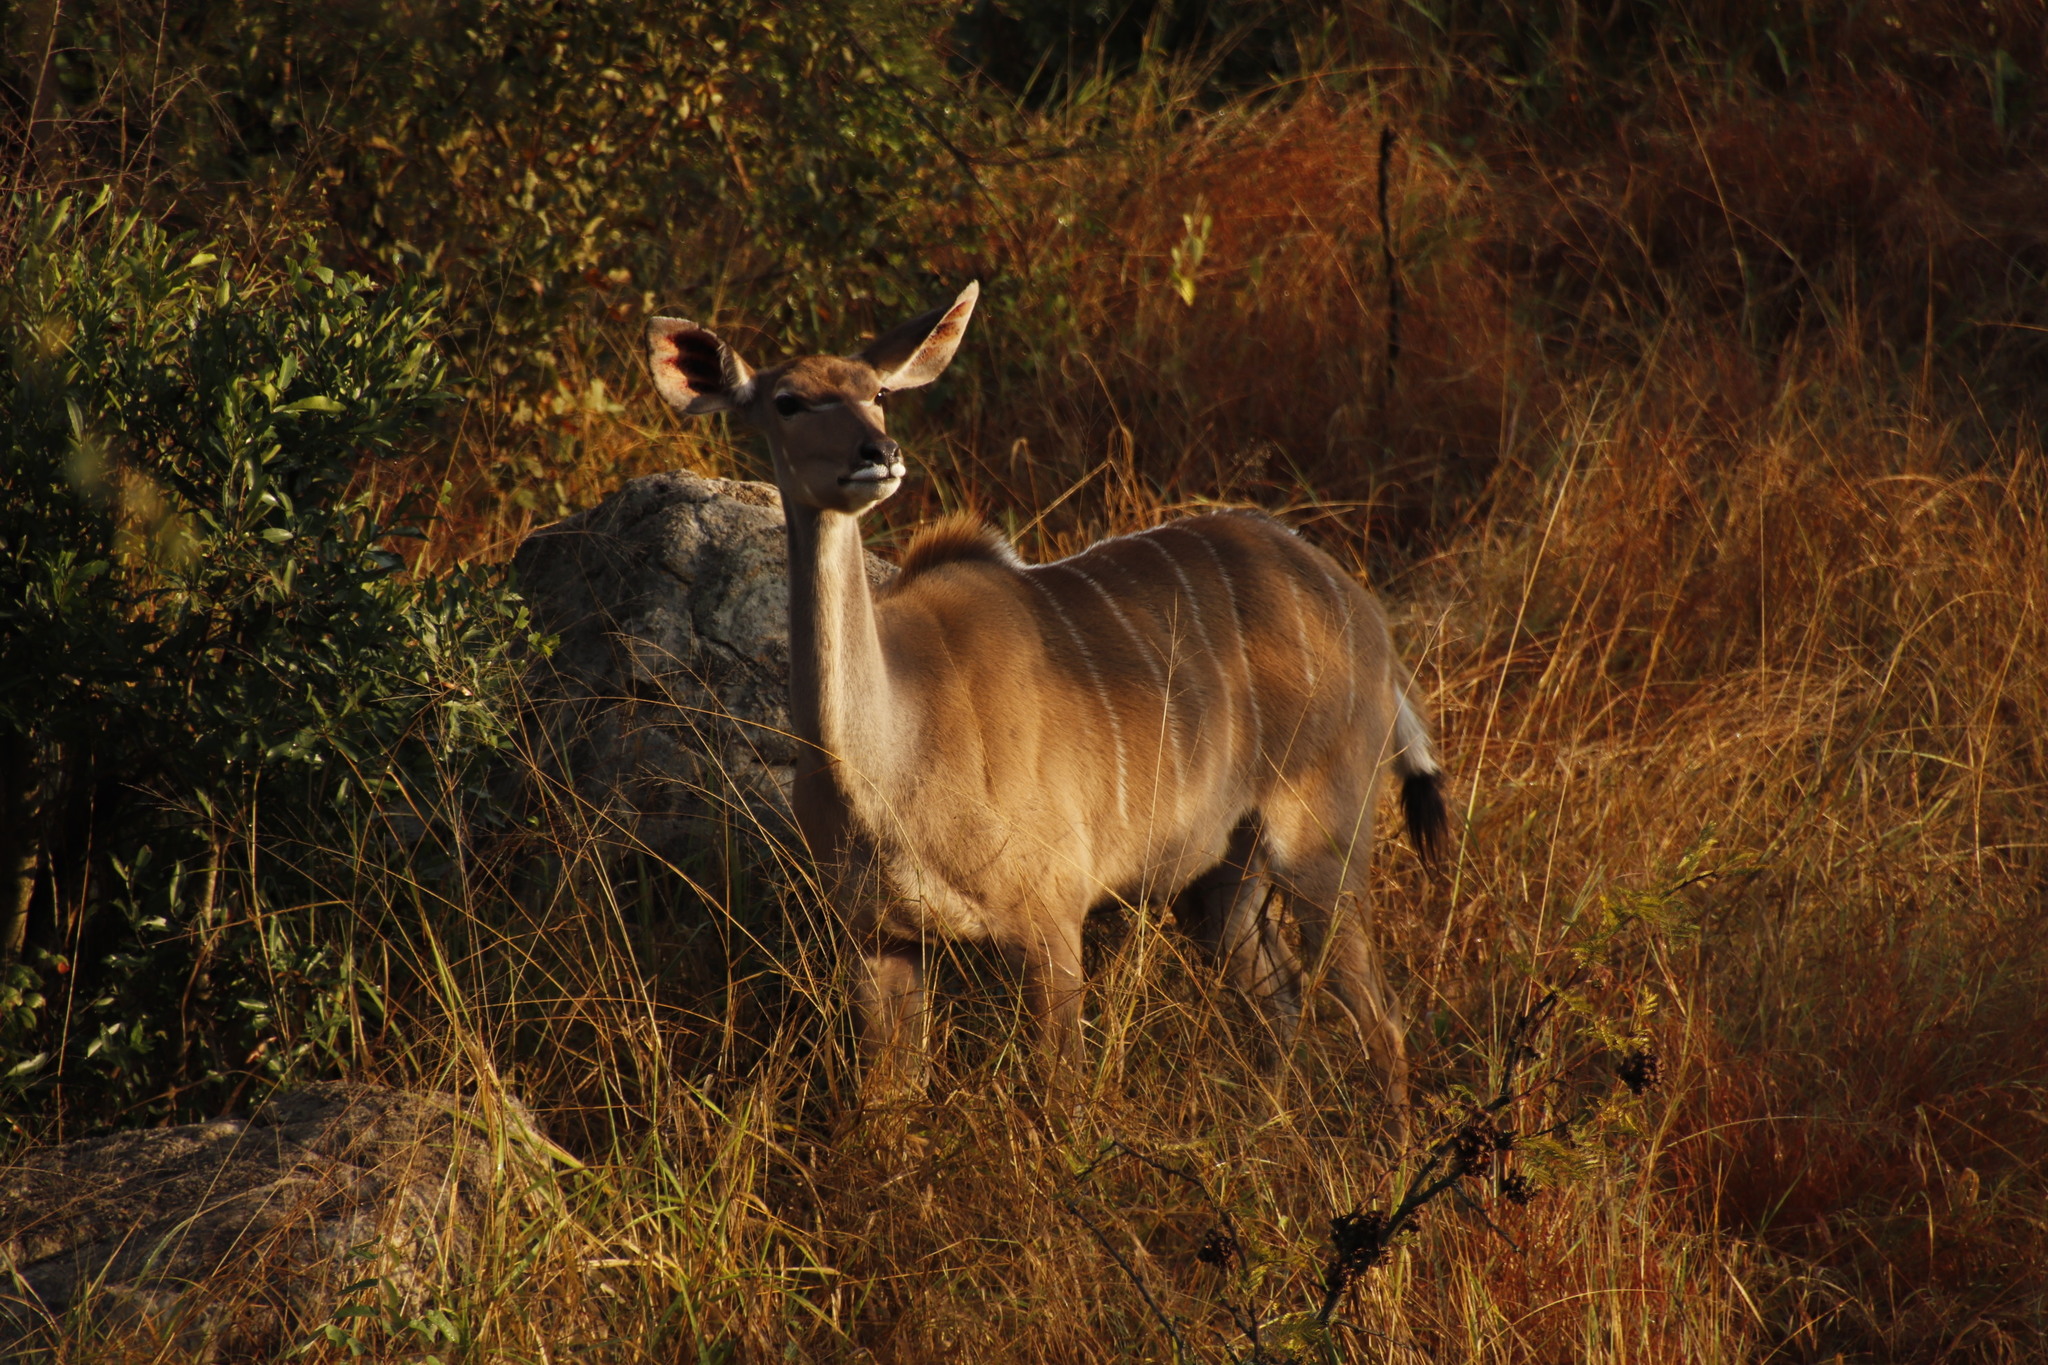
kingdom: Animalia
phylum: Chordata
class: Mammalia
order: Artiodactyla
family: Bovidae
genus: Tragelaphus
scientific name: Tragelaphus strepsiceros
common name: Greater kudu
